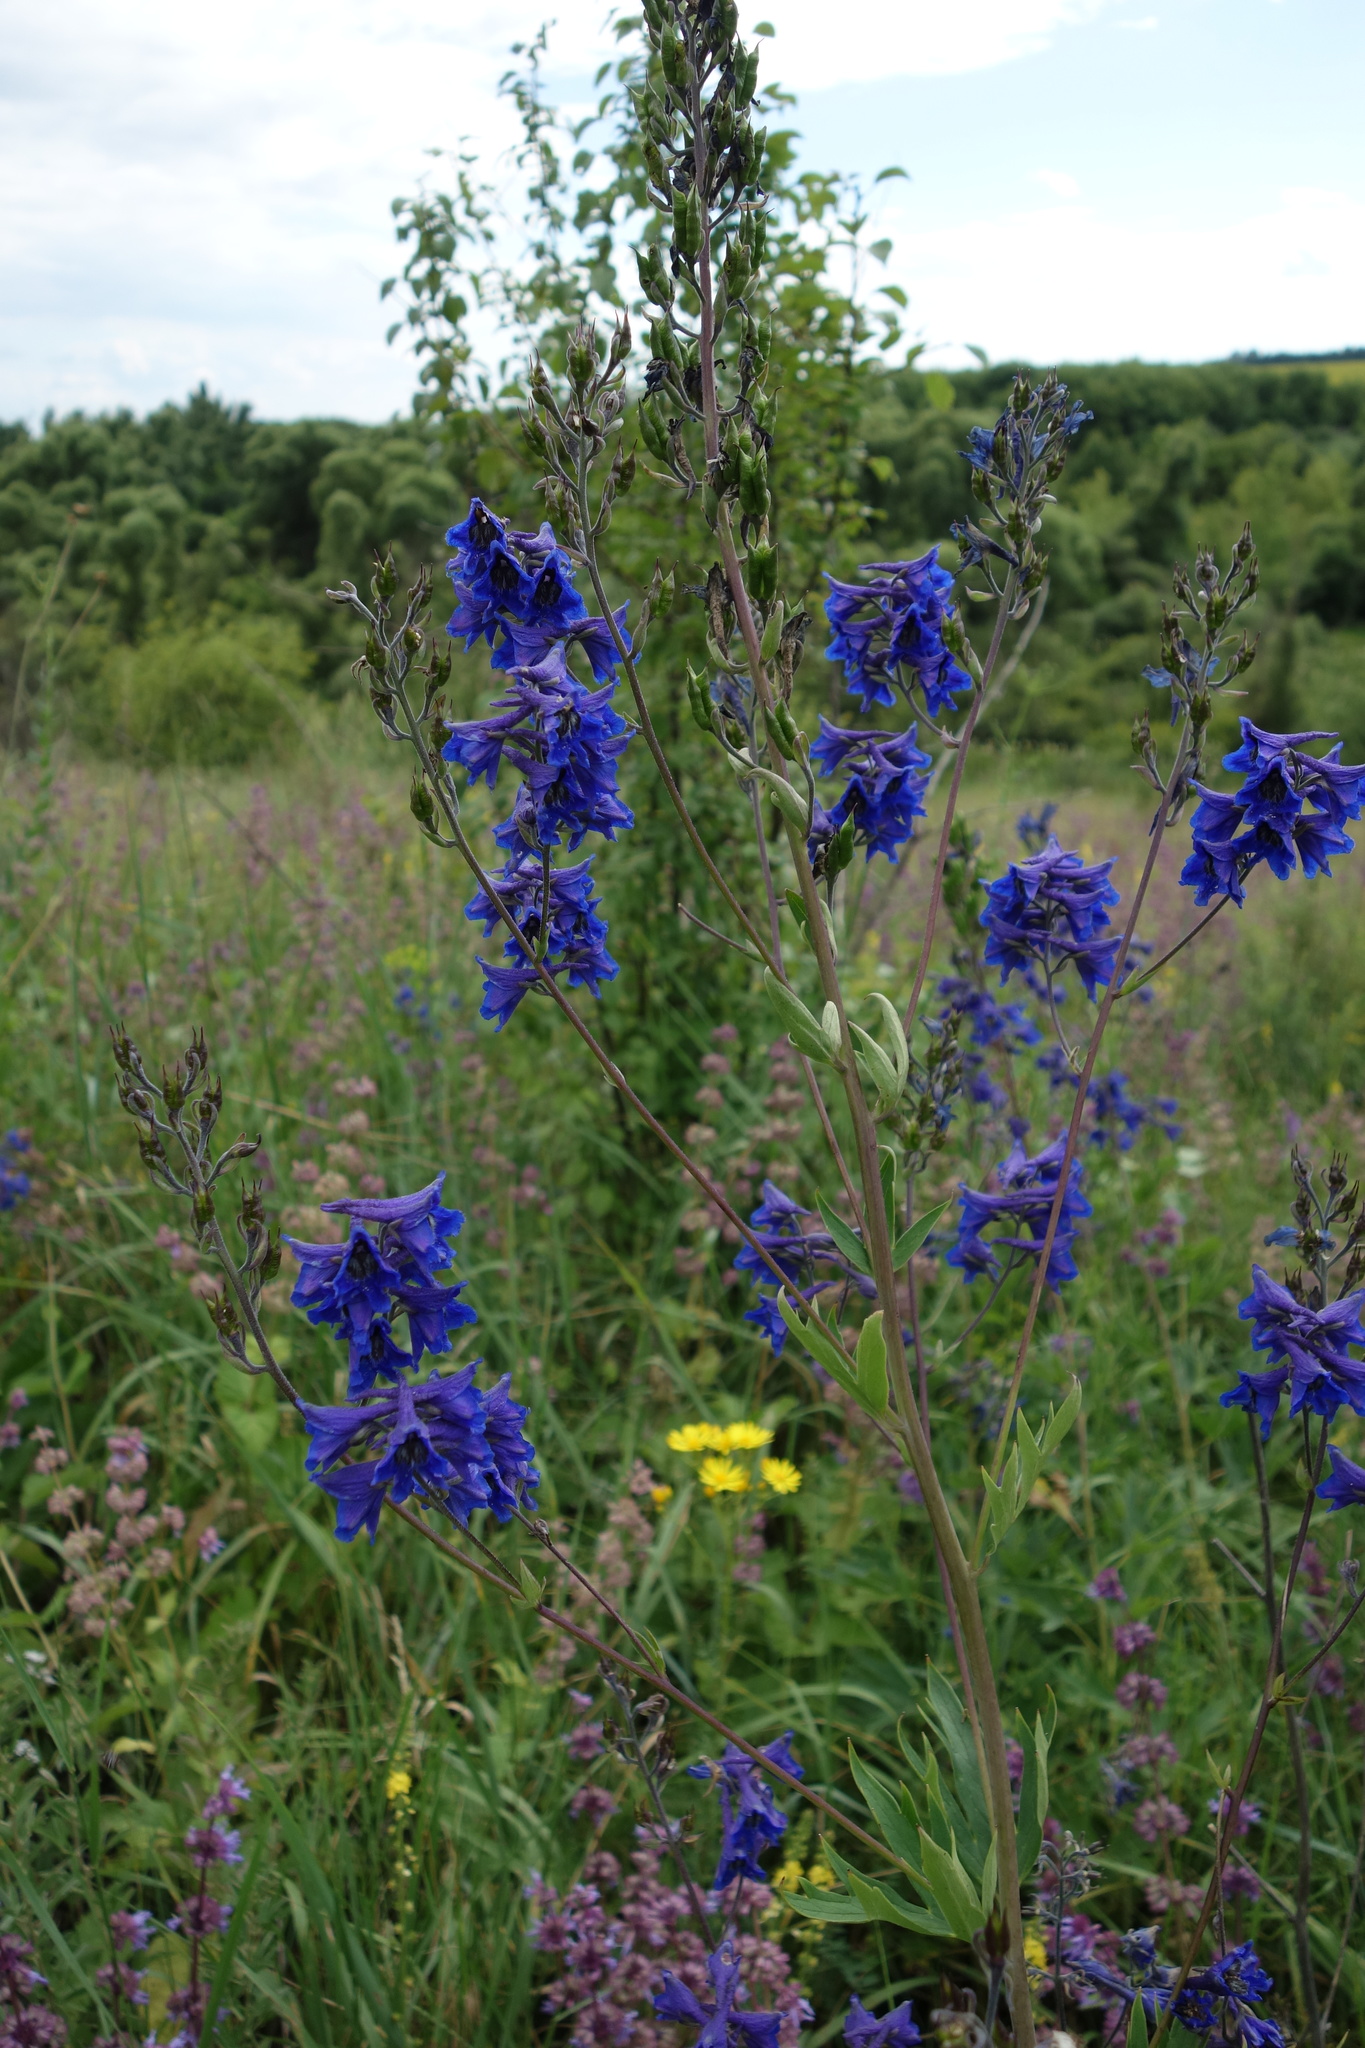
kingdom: Plantae
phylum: Tracheophyta
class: Magnoliopsida
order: Ranunculales
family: Ranunculaceae
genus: Delphinium
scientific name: Delphinium cuneatum
